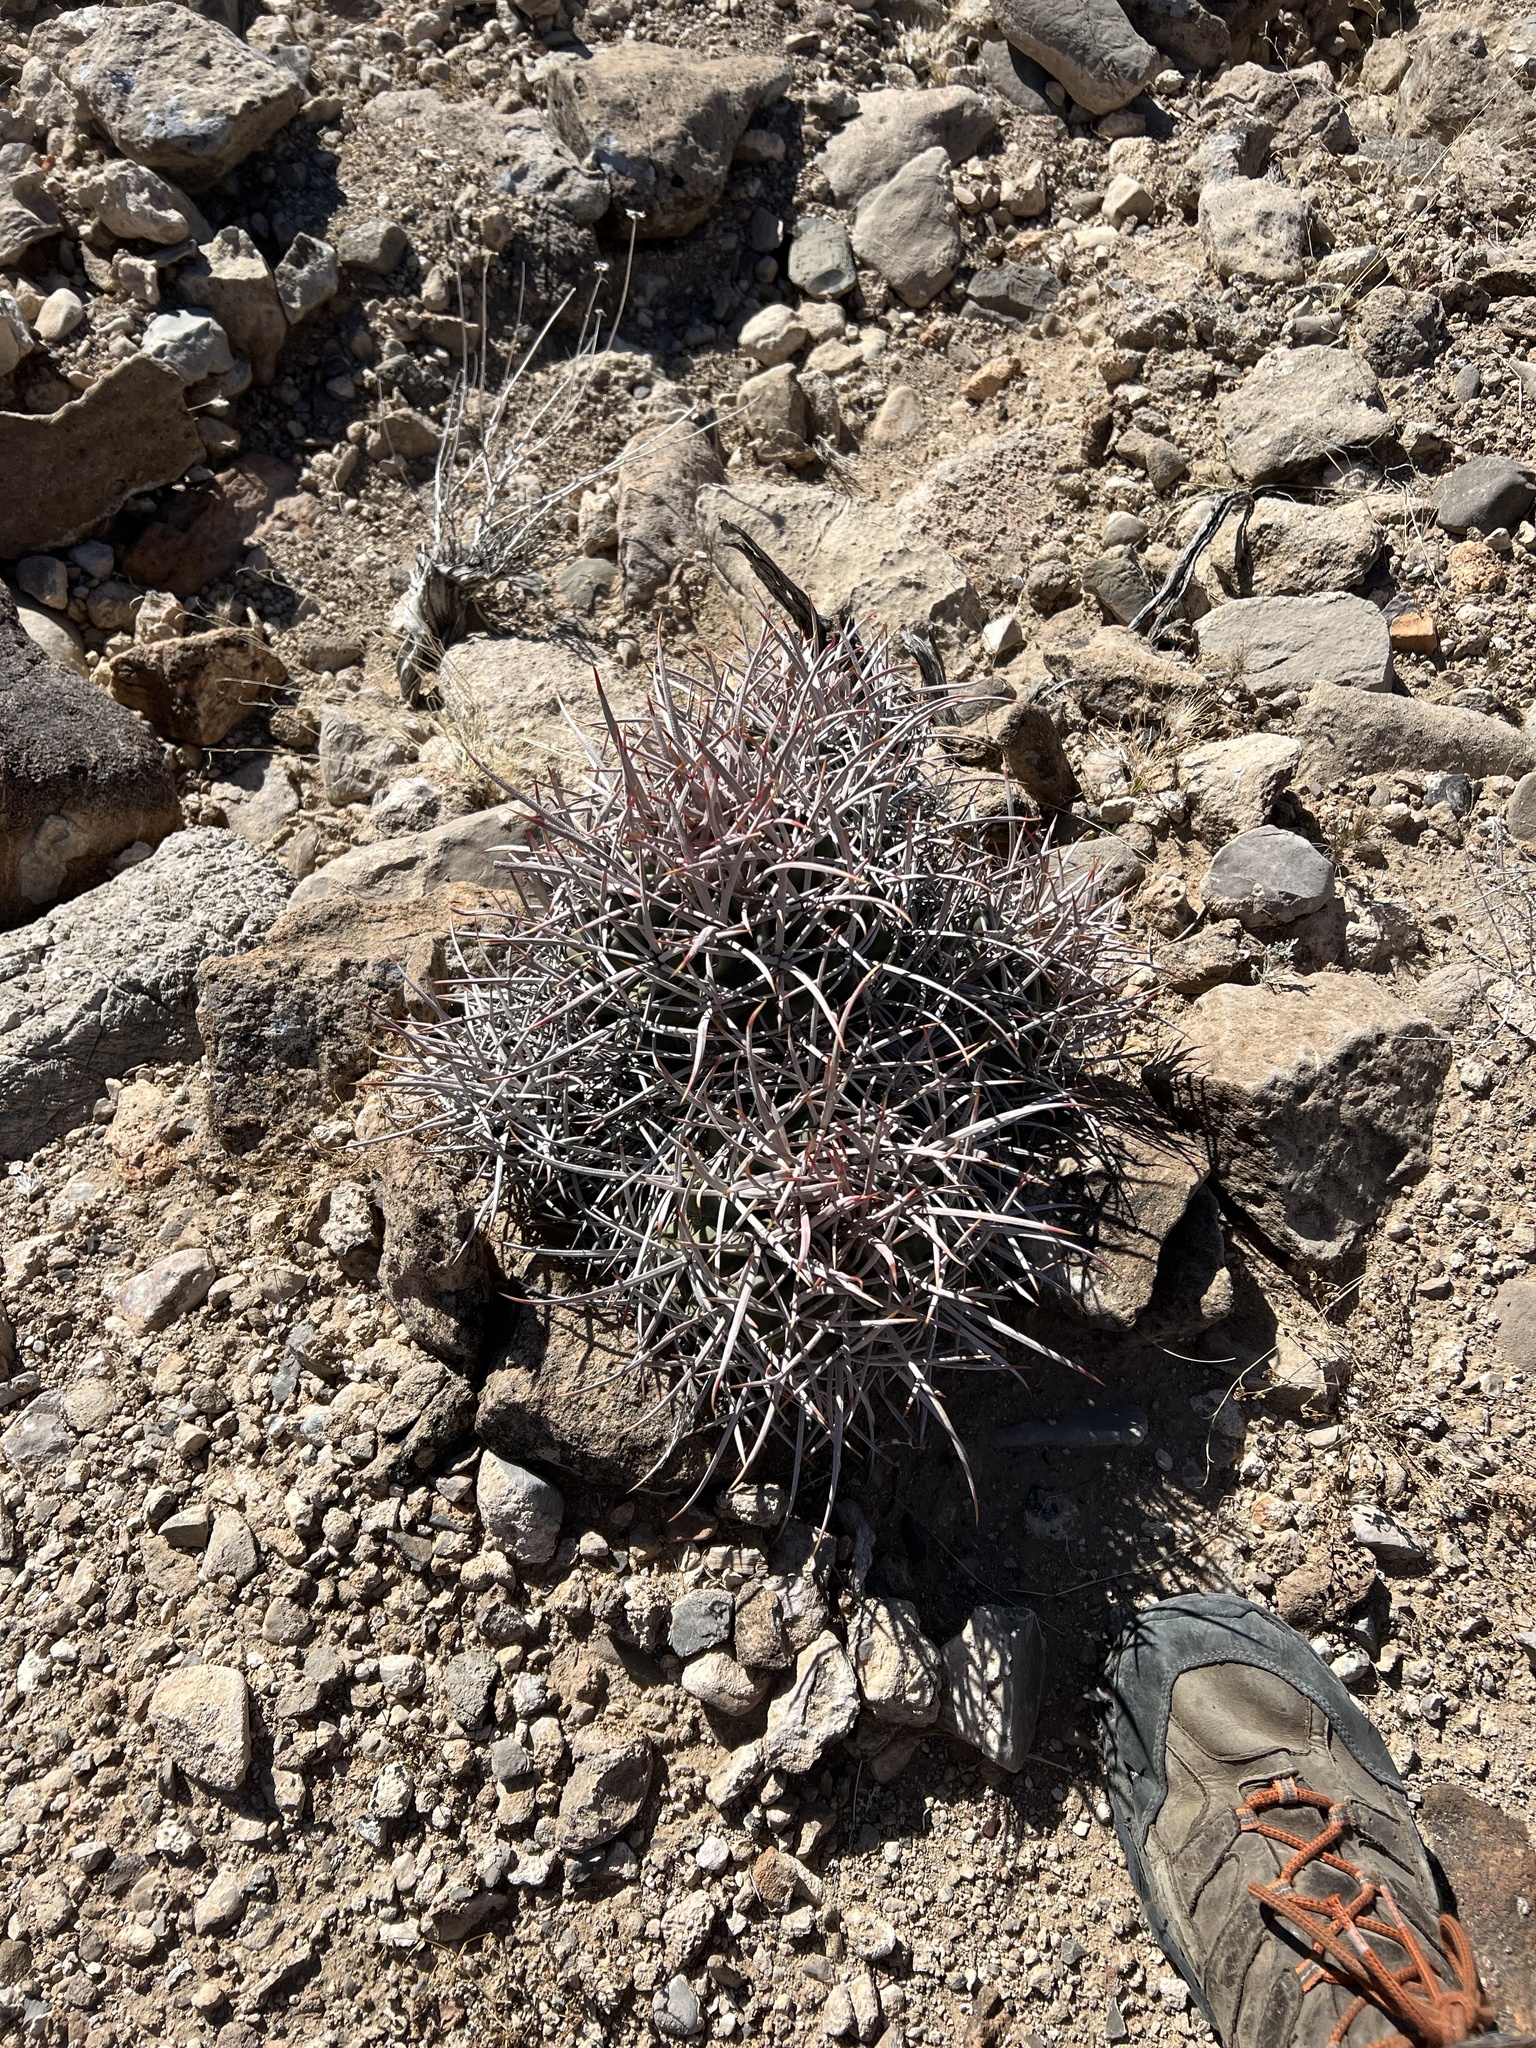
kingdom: Plantae
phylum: Tracheophyta
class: Magnoliopsida
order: Caryophyllales
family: Cactaceae
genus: Echinocactus
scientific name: Echinocactus polycephalus
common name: Cottontop cactus
